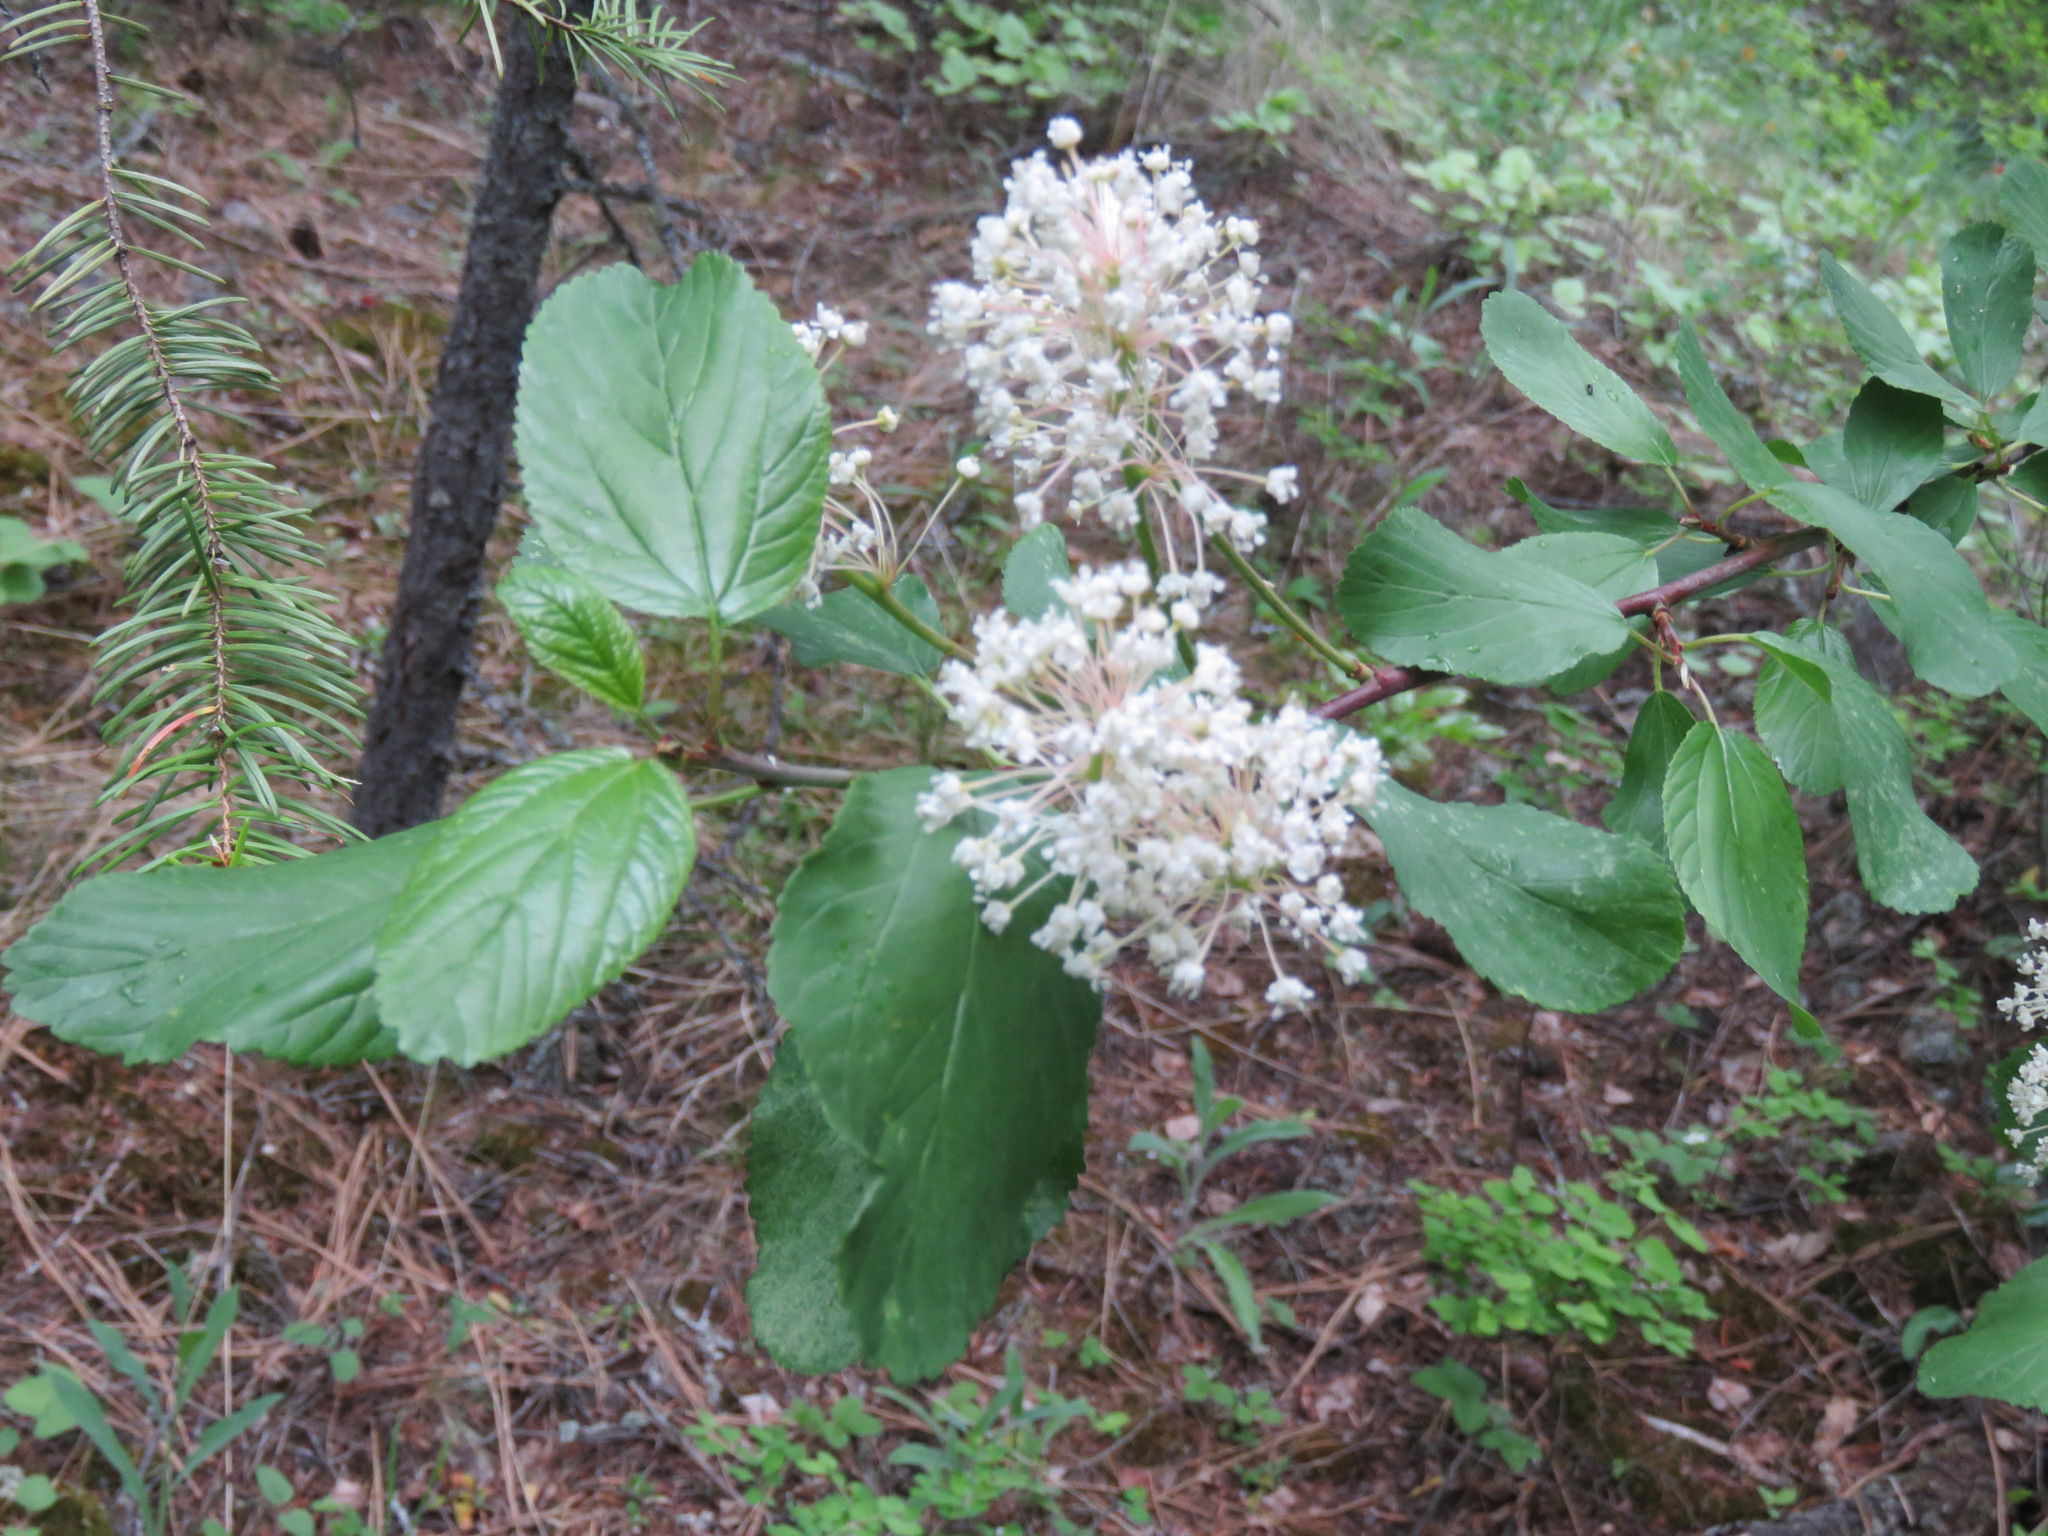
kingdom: Plantae
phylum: Tracheophyta
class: Magnoliopsida
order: Rosales
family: Rhamnaceae
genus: Ceanothus
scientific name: Ceanothus sanguineus
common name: Teatree
